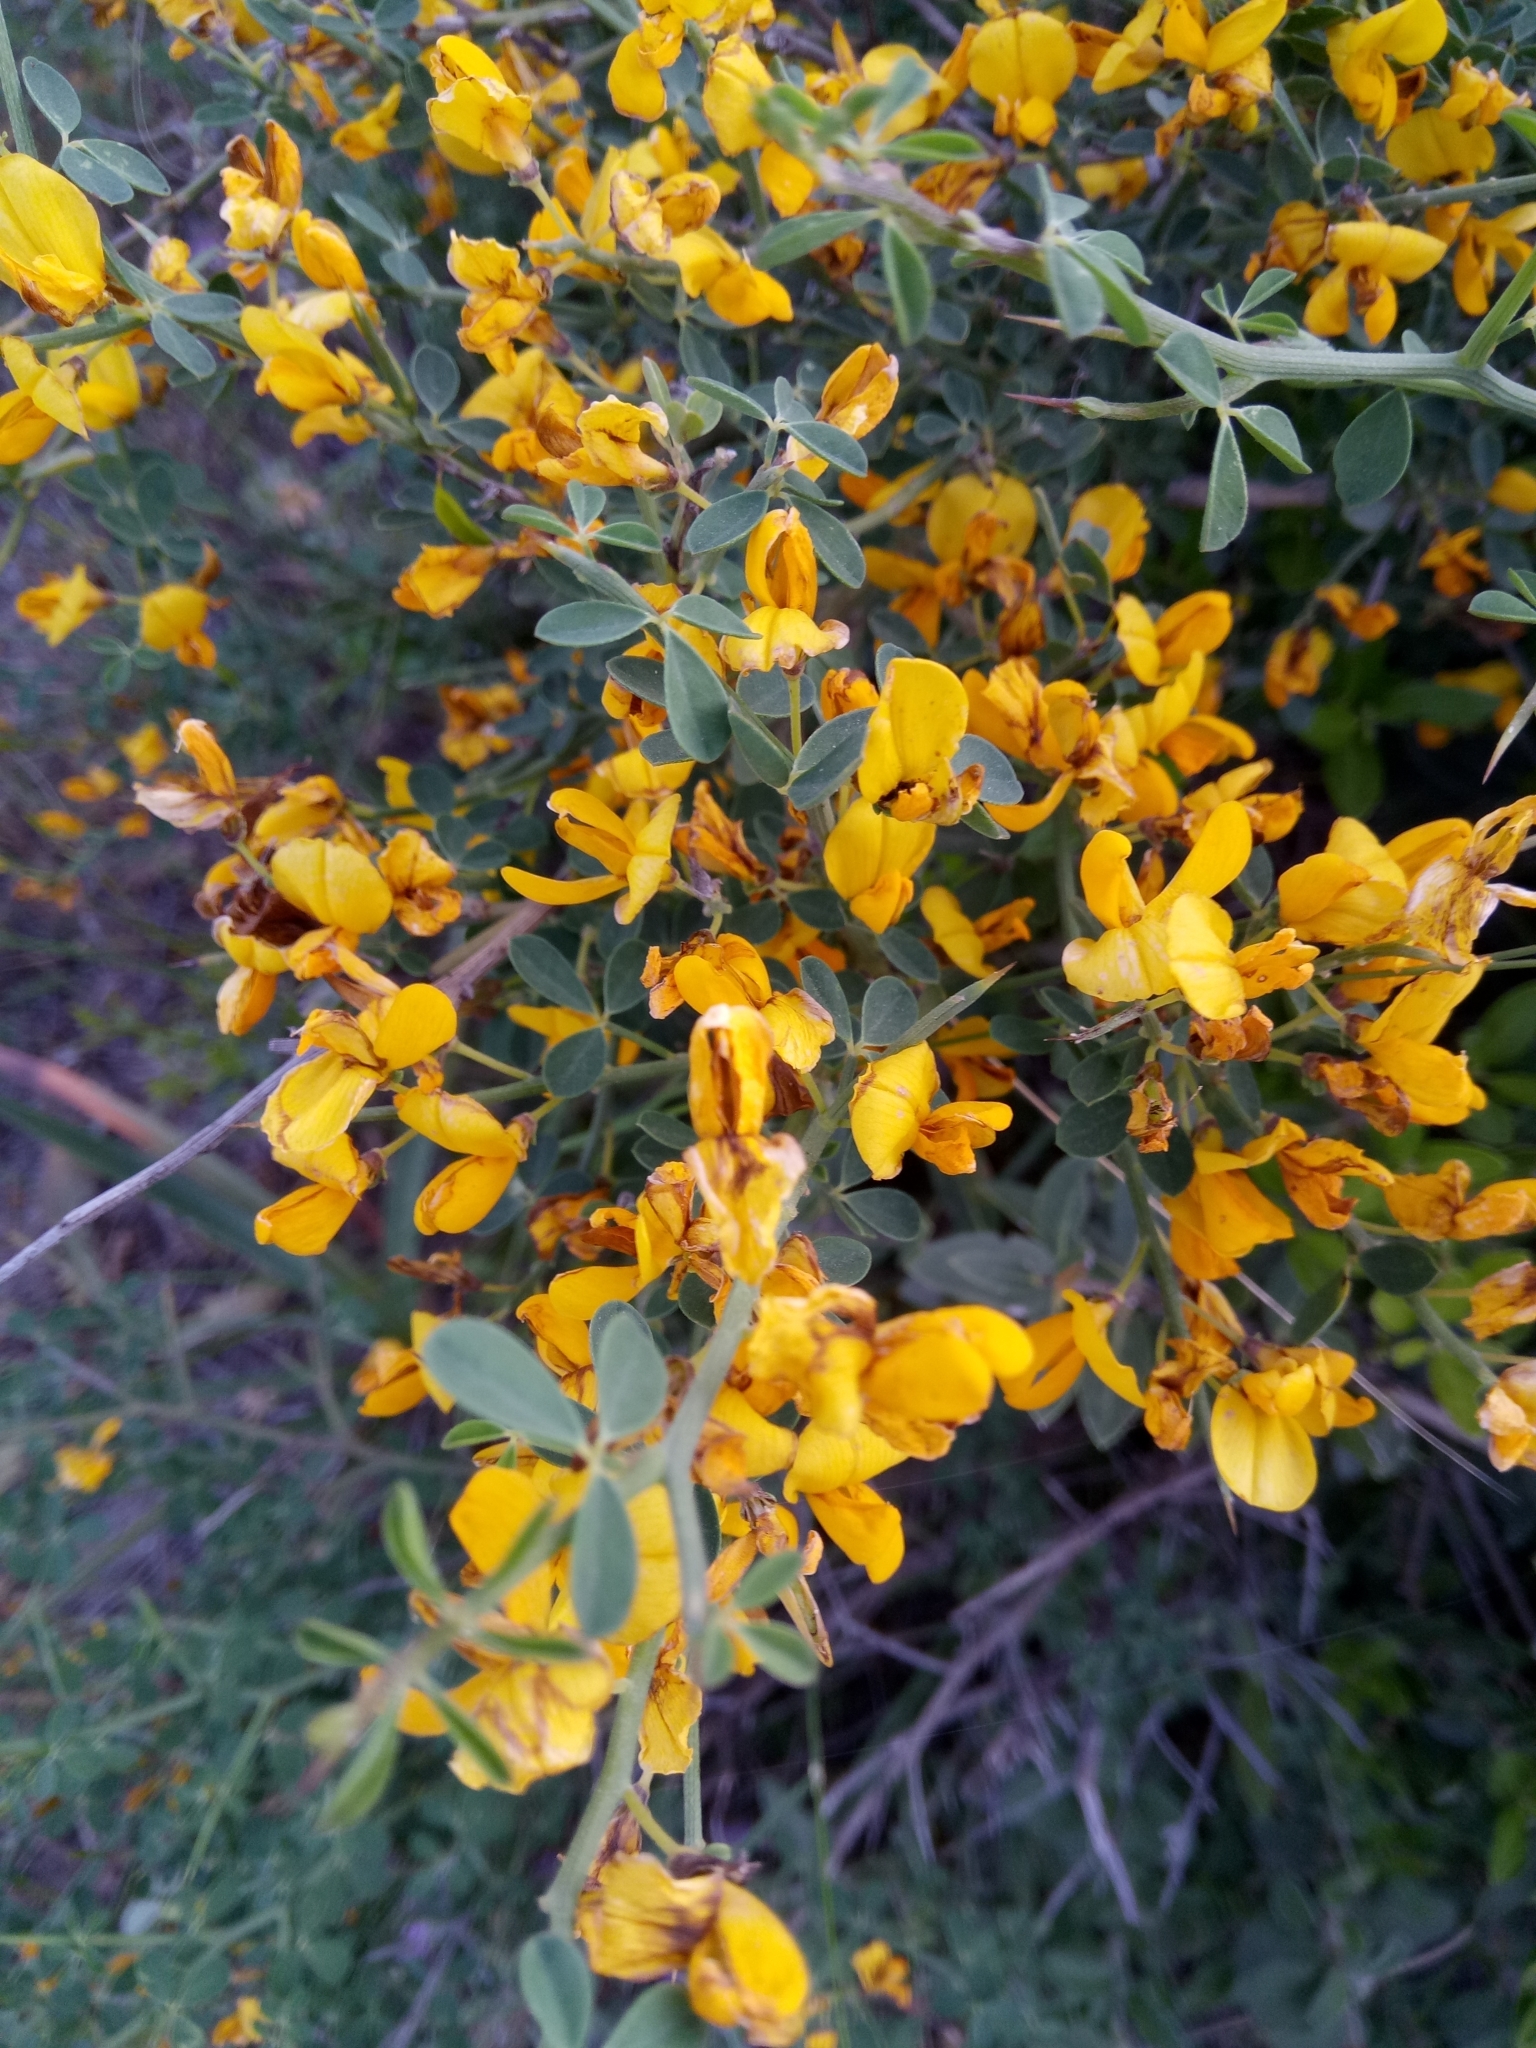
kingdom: Plantae
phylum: Tracheophyta
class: Magnoliopsida
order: Fabales
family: Fabaceae
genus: Calicotome
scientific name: Calicotome spinosa
